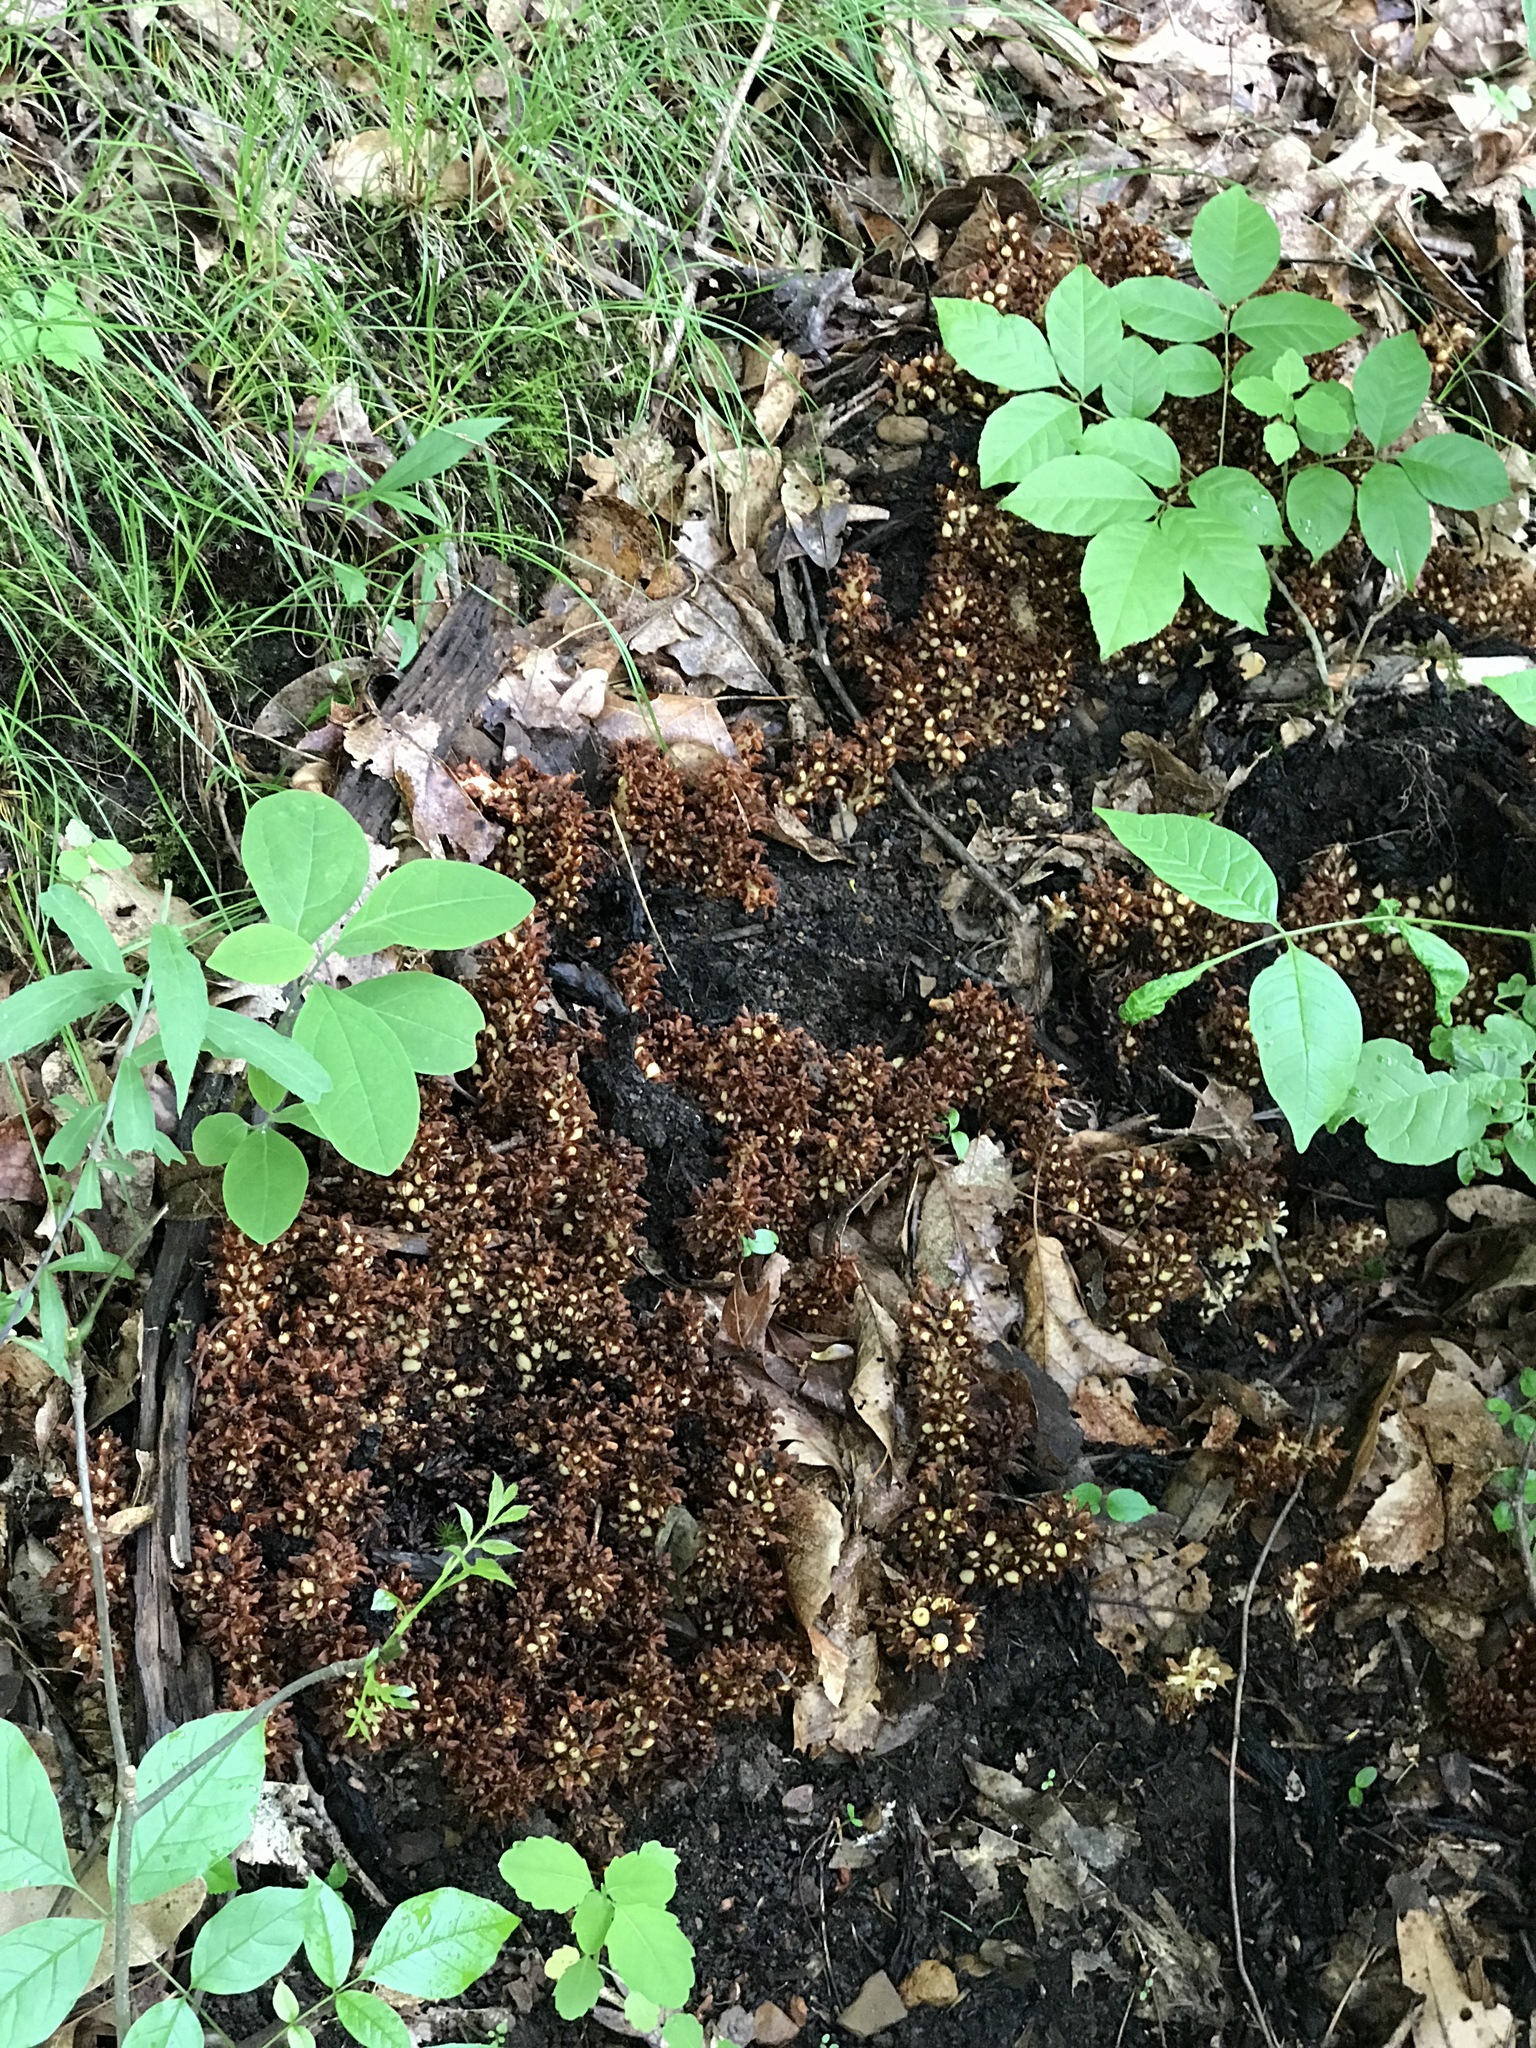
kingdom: Plantae
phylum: Tracheophyta
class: Magnoliopsida
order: Lamiales
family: Orobanchaceae
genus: Conopholis
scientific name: Conopholis americana
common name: American cancer-root
